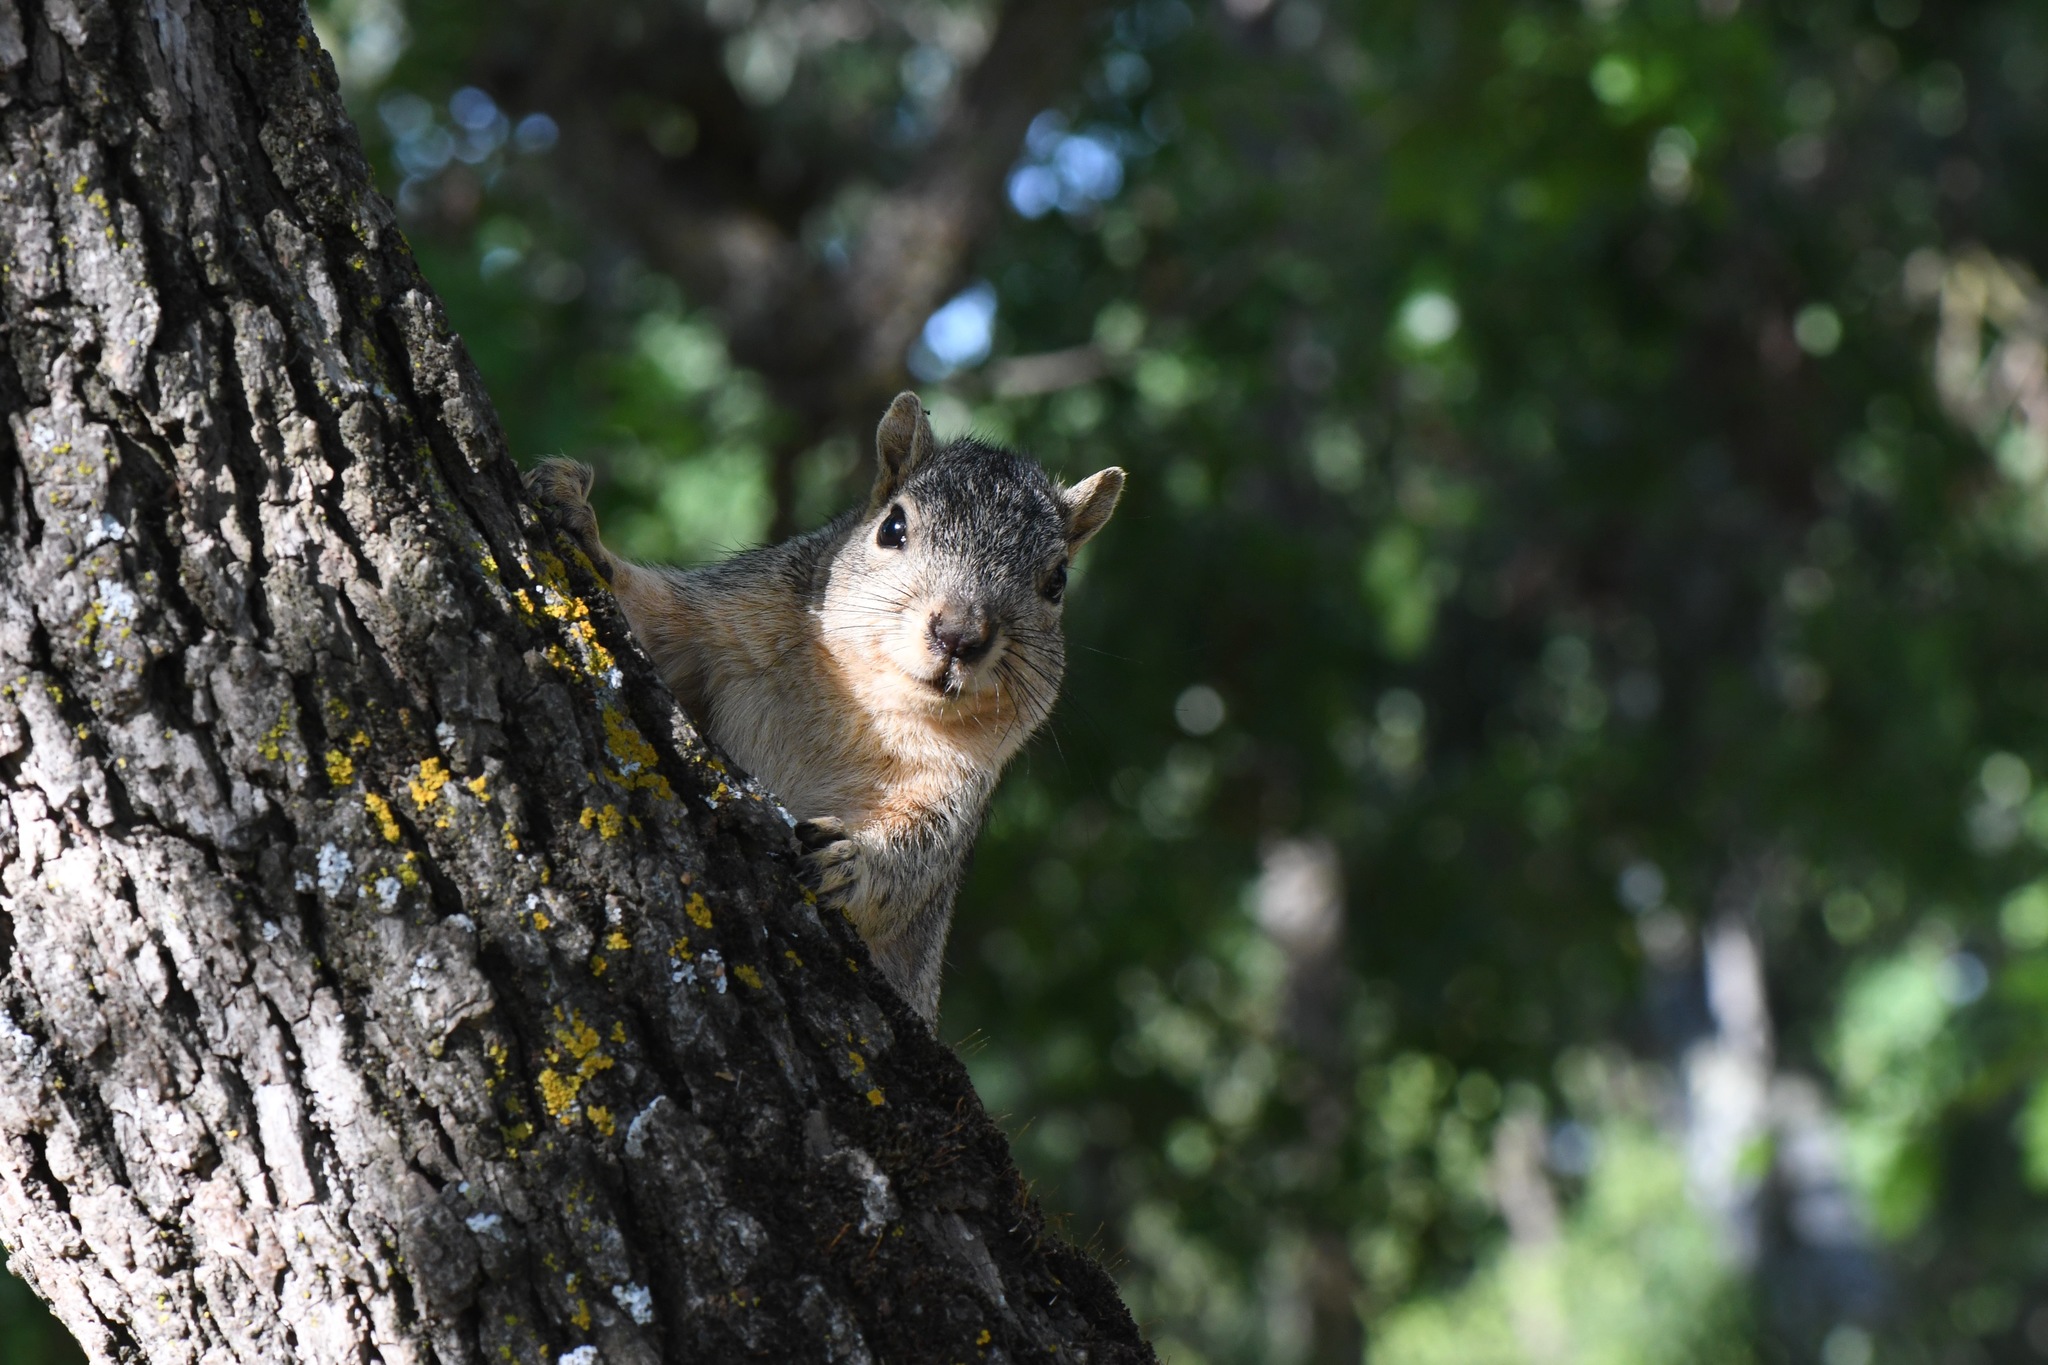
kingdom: Animalia
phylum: Chordata
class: Mammalia
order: Rodentia
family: Sciuridae
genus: Sciurus
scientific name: Sciurus niger
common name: Fox squirrel
